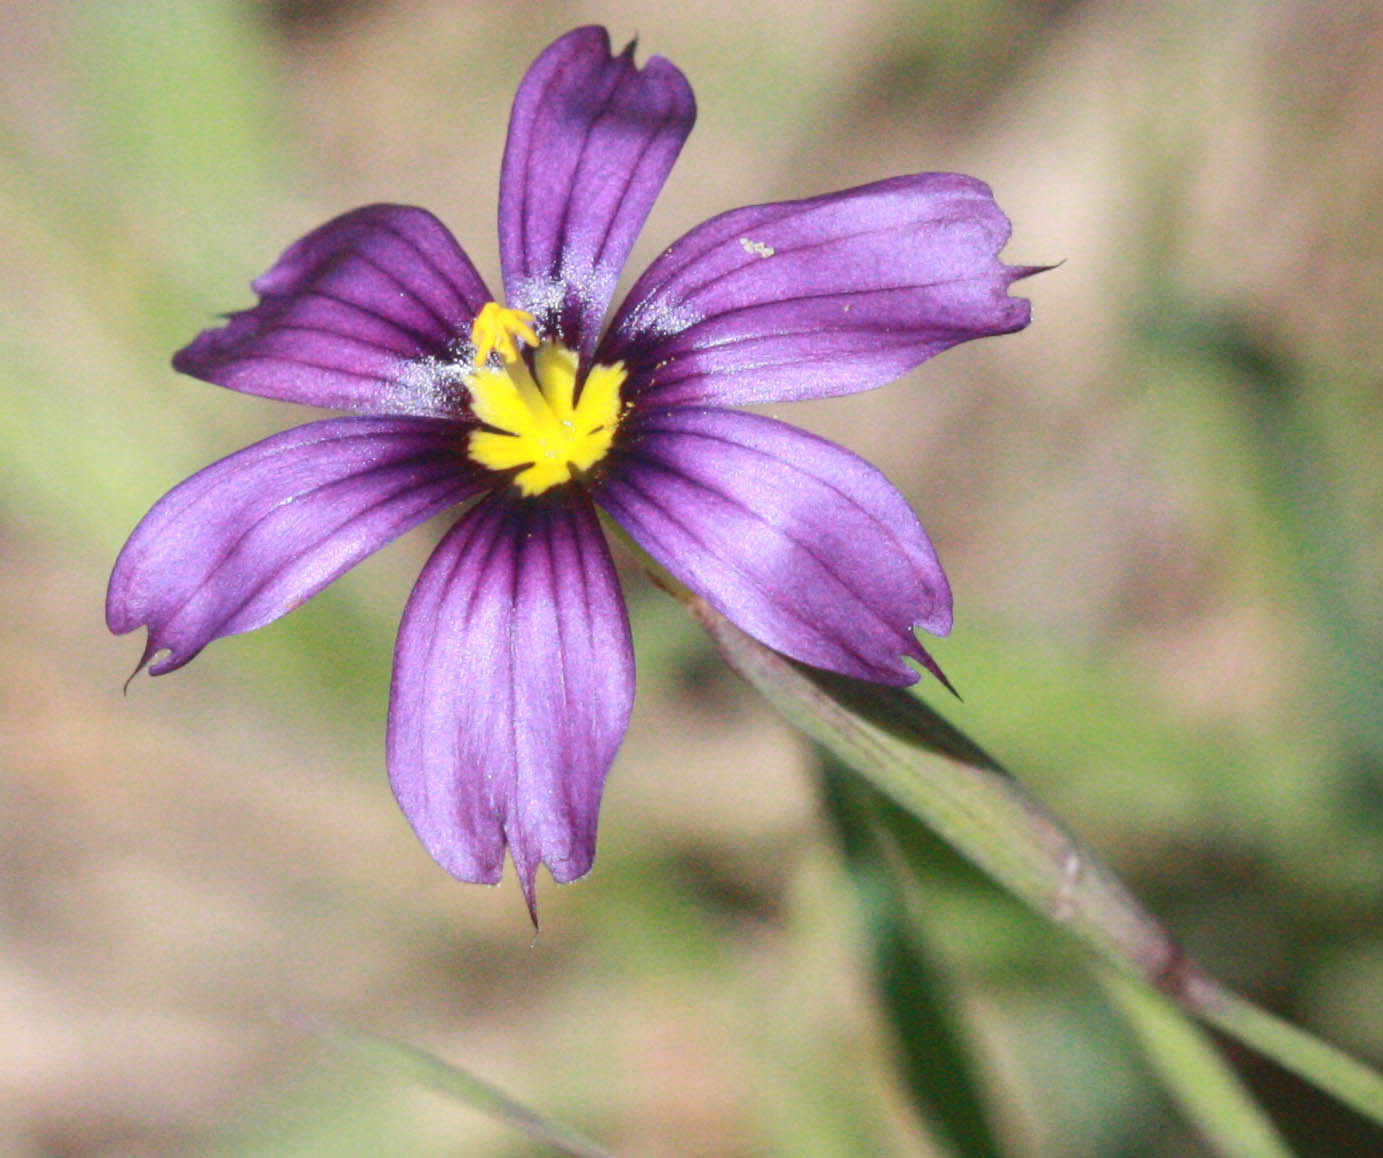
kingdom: Plantae
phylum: Tracheophyta
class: Liliopsida
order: Asparagales
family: Iridaceae
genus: Sisyrinchium
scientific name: Sisyrinchium bellum
